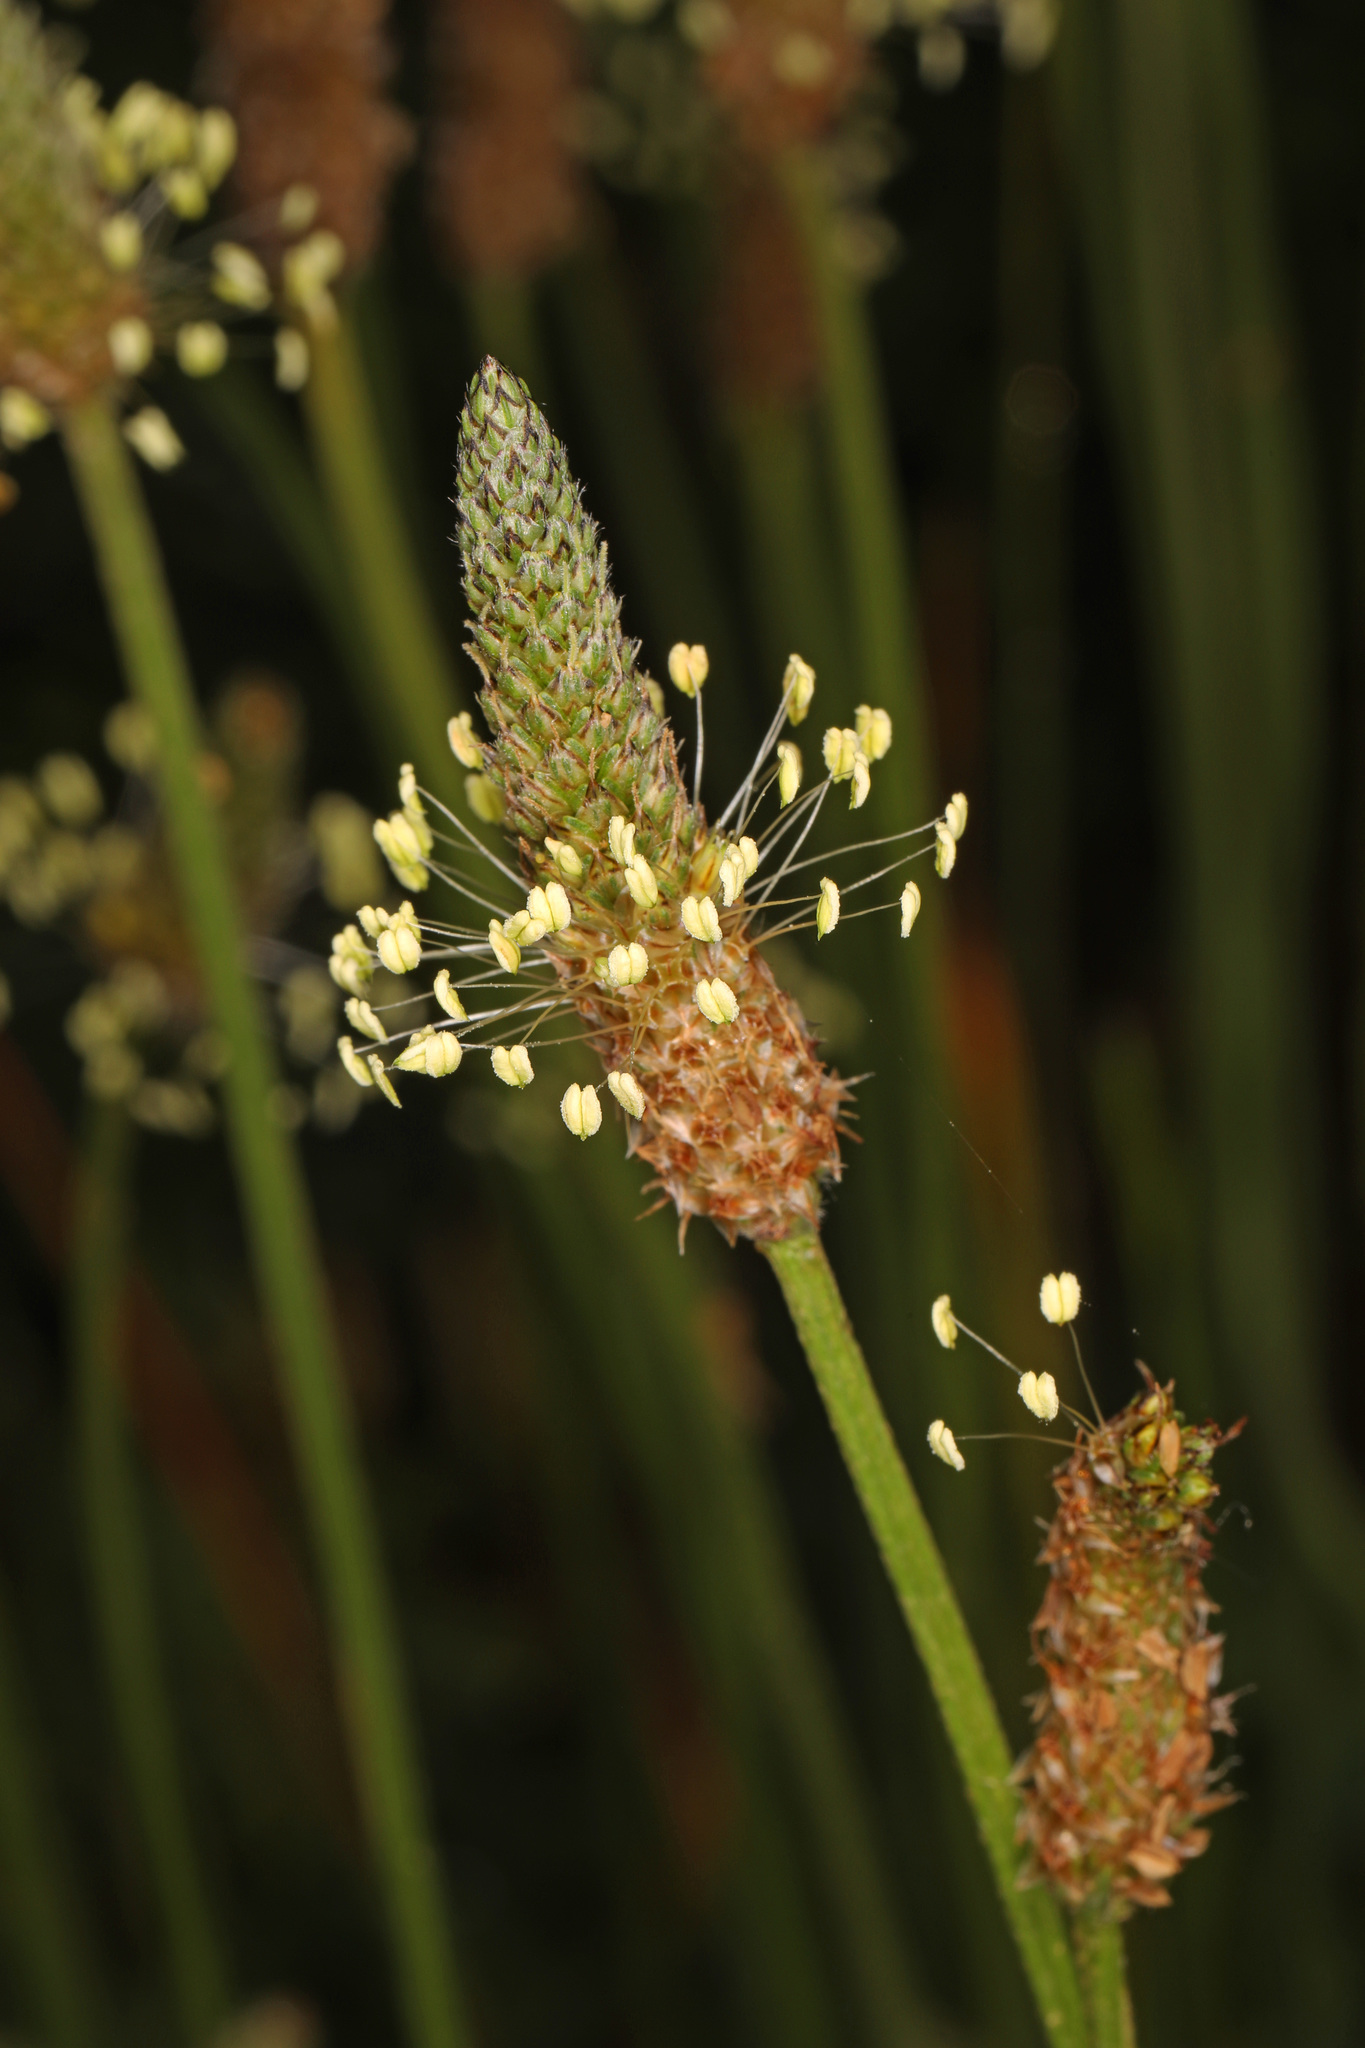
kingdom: Plantae
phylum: Tracheophyta
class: Magnoliopsida
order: Lamiales
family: Plantaginaceae
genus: Plantago
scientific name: Plantago lanceolata
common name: Ribwort plantain
